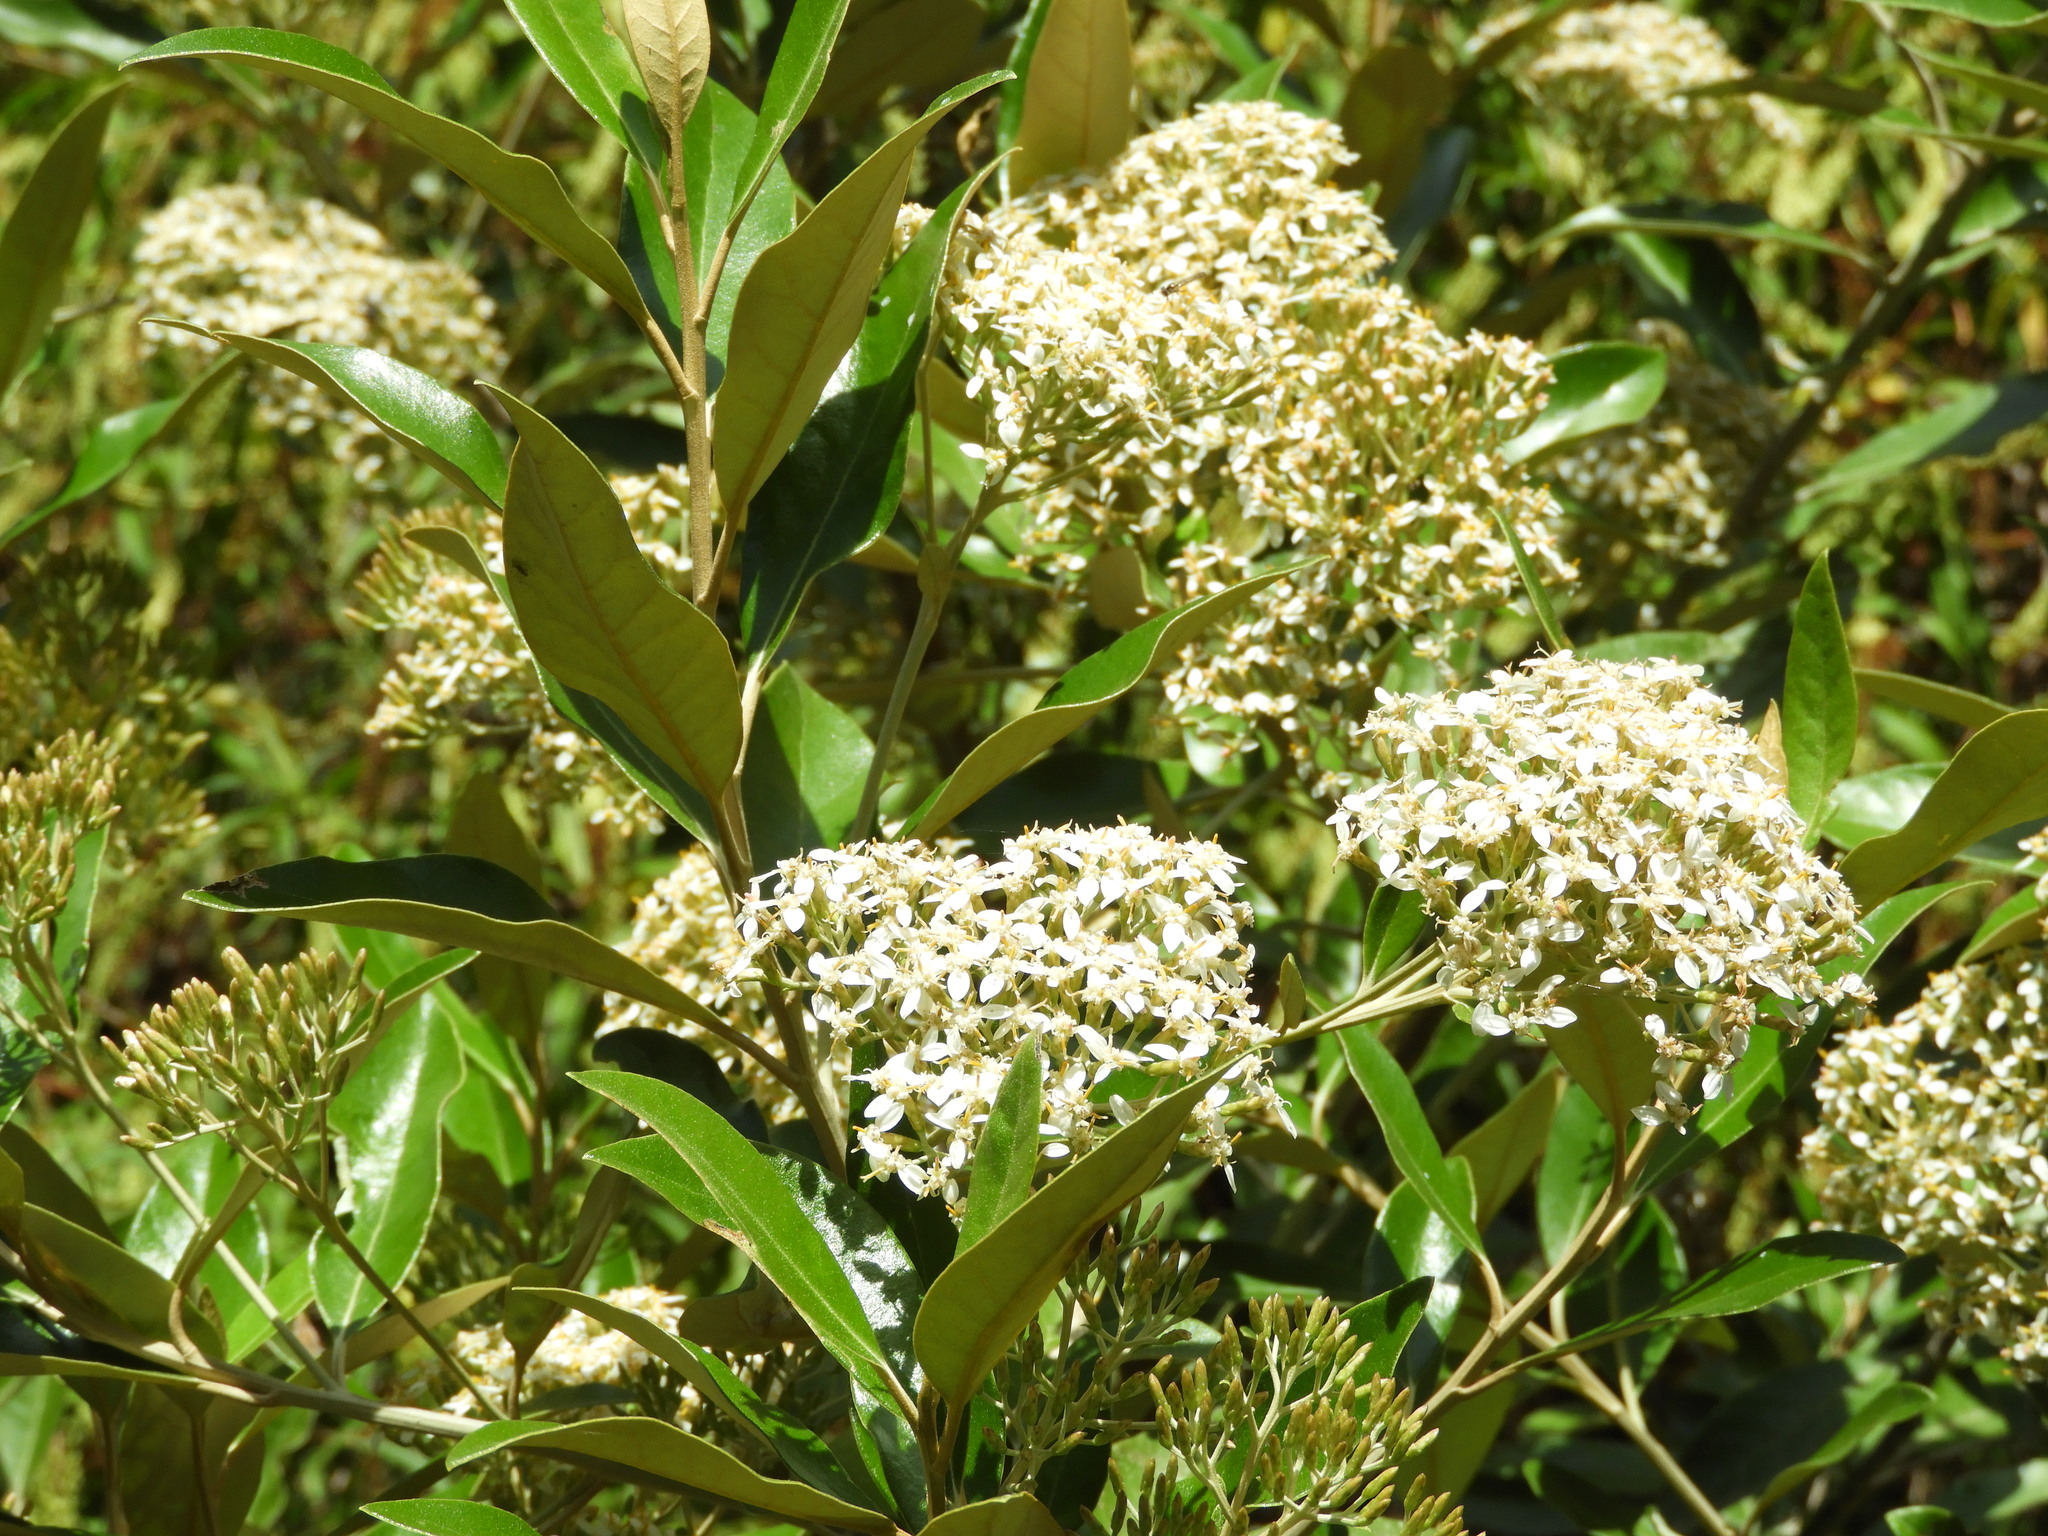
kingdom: Plantae
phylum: Tracheophyta
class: Magnoliopsida
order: Asterales
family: Asteraceae
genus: Olearia
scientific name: Olearia avicenniifolia
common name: Mangrove-leaf daisybush
